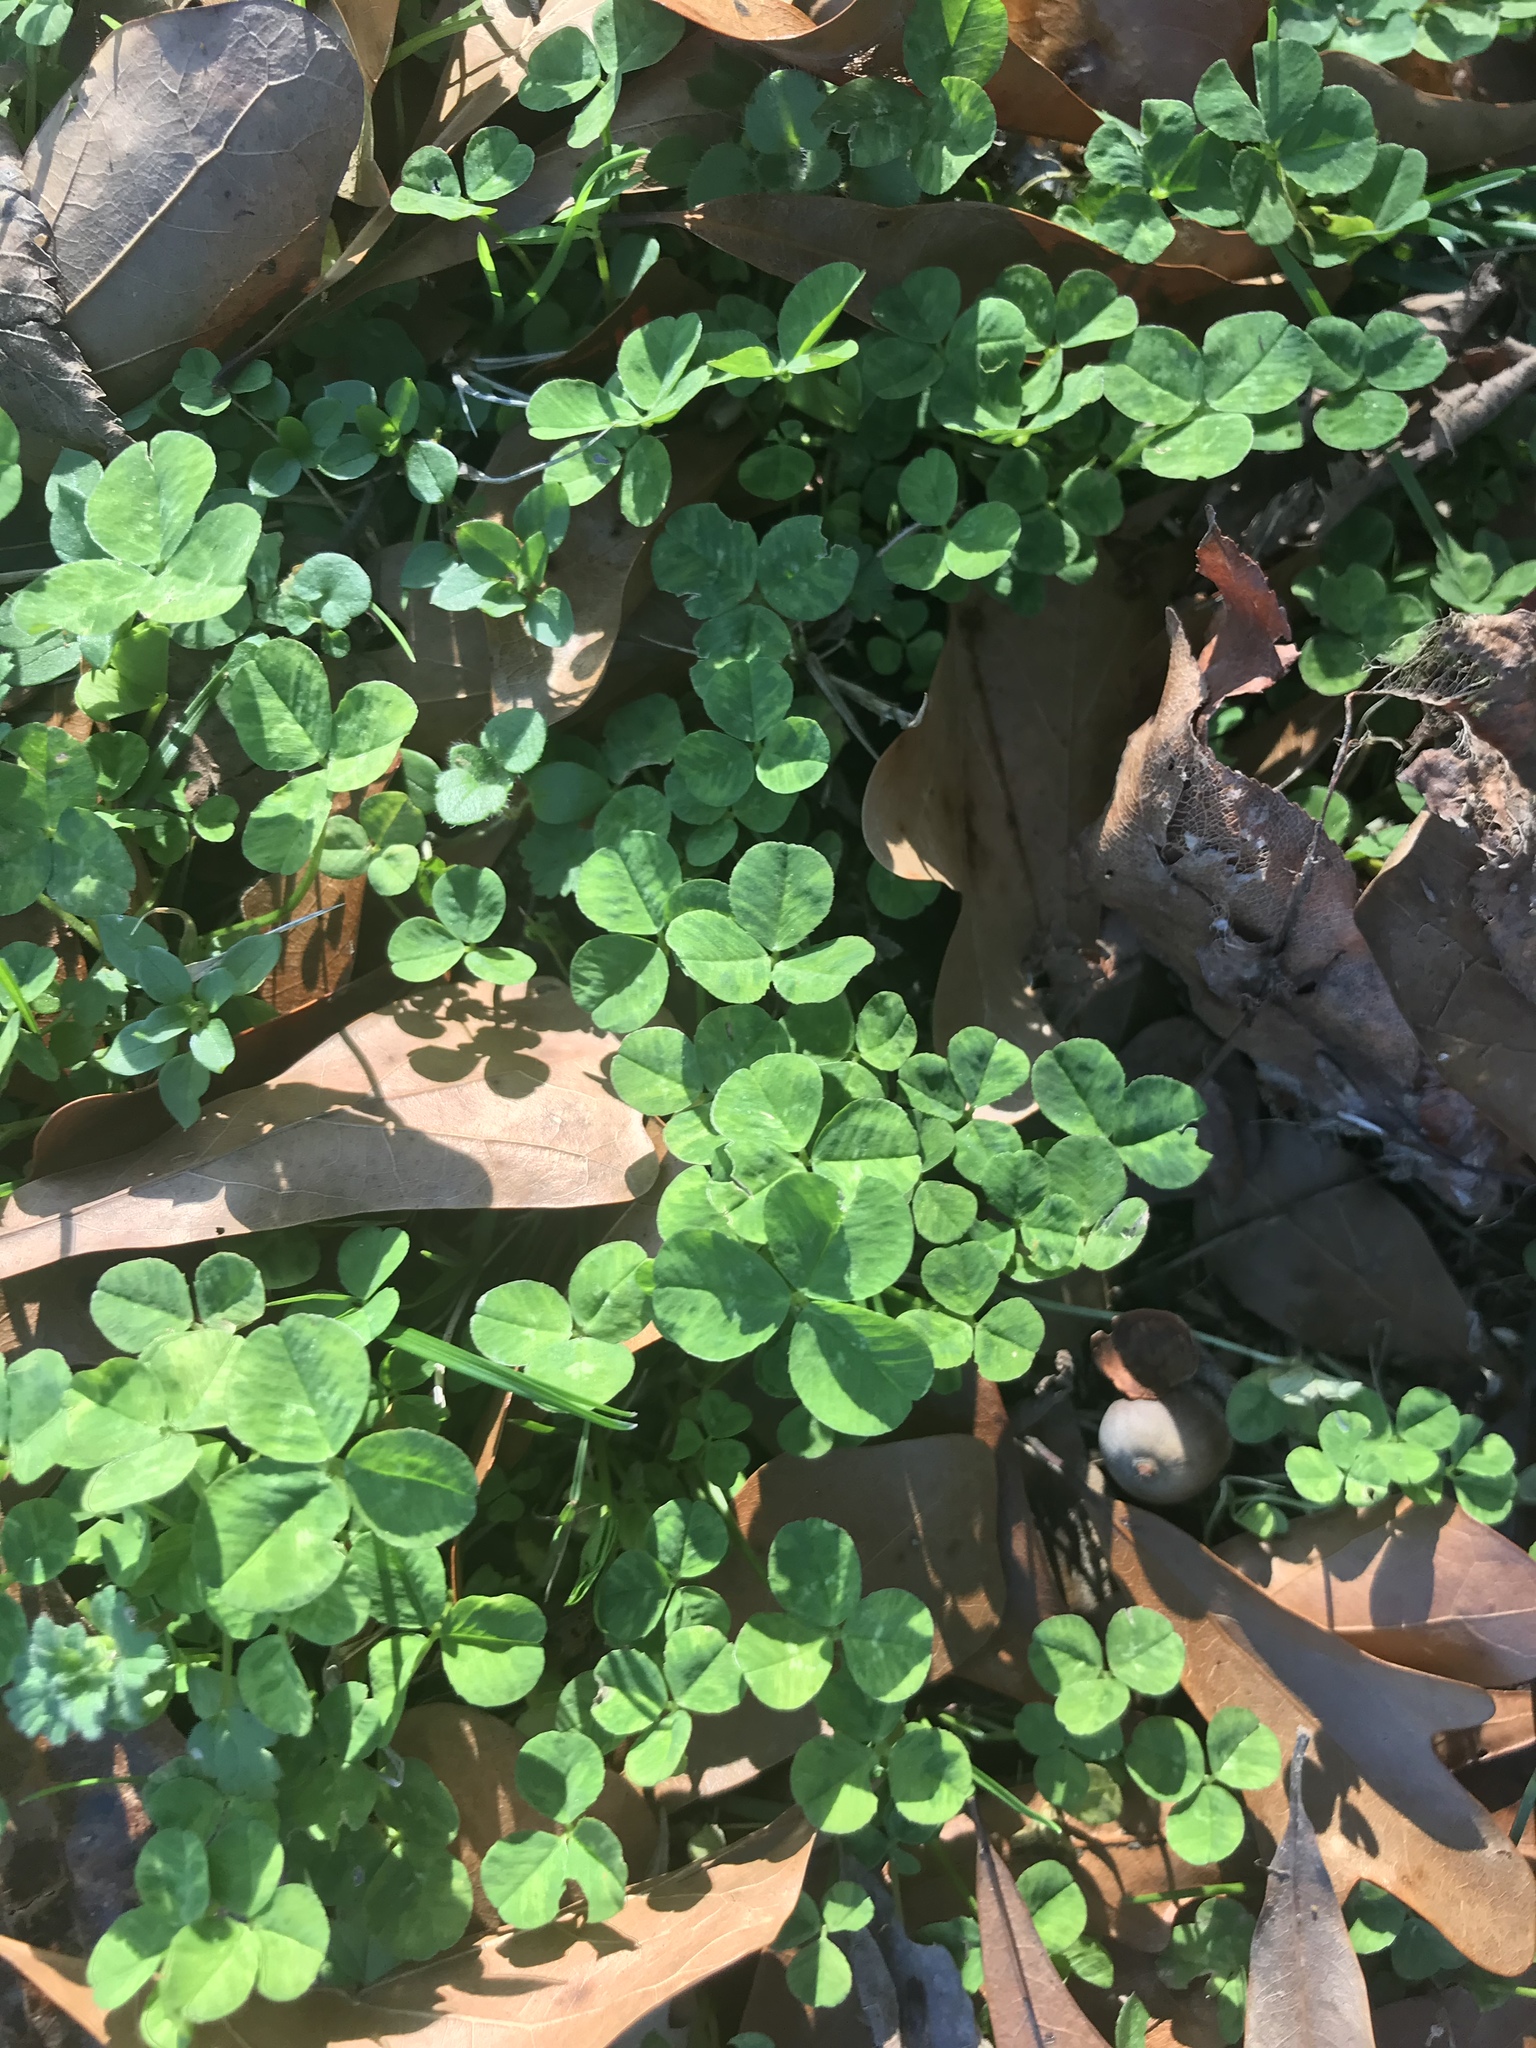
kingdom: Plantae
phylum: Tracheophyta
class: Magnoliopsida
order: Fabales
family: Fabaceae
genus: Trifolium
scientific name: Trifolium repens
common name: White clover
